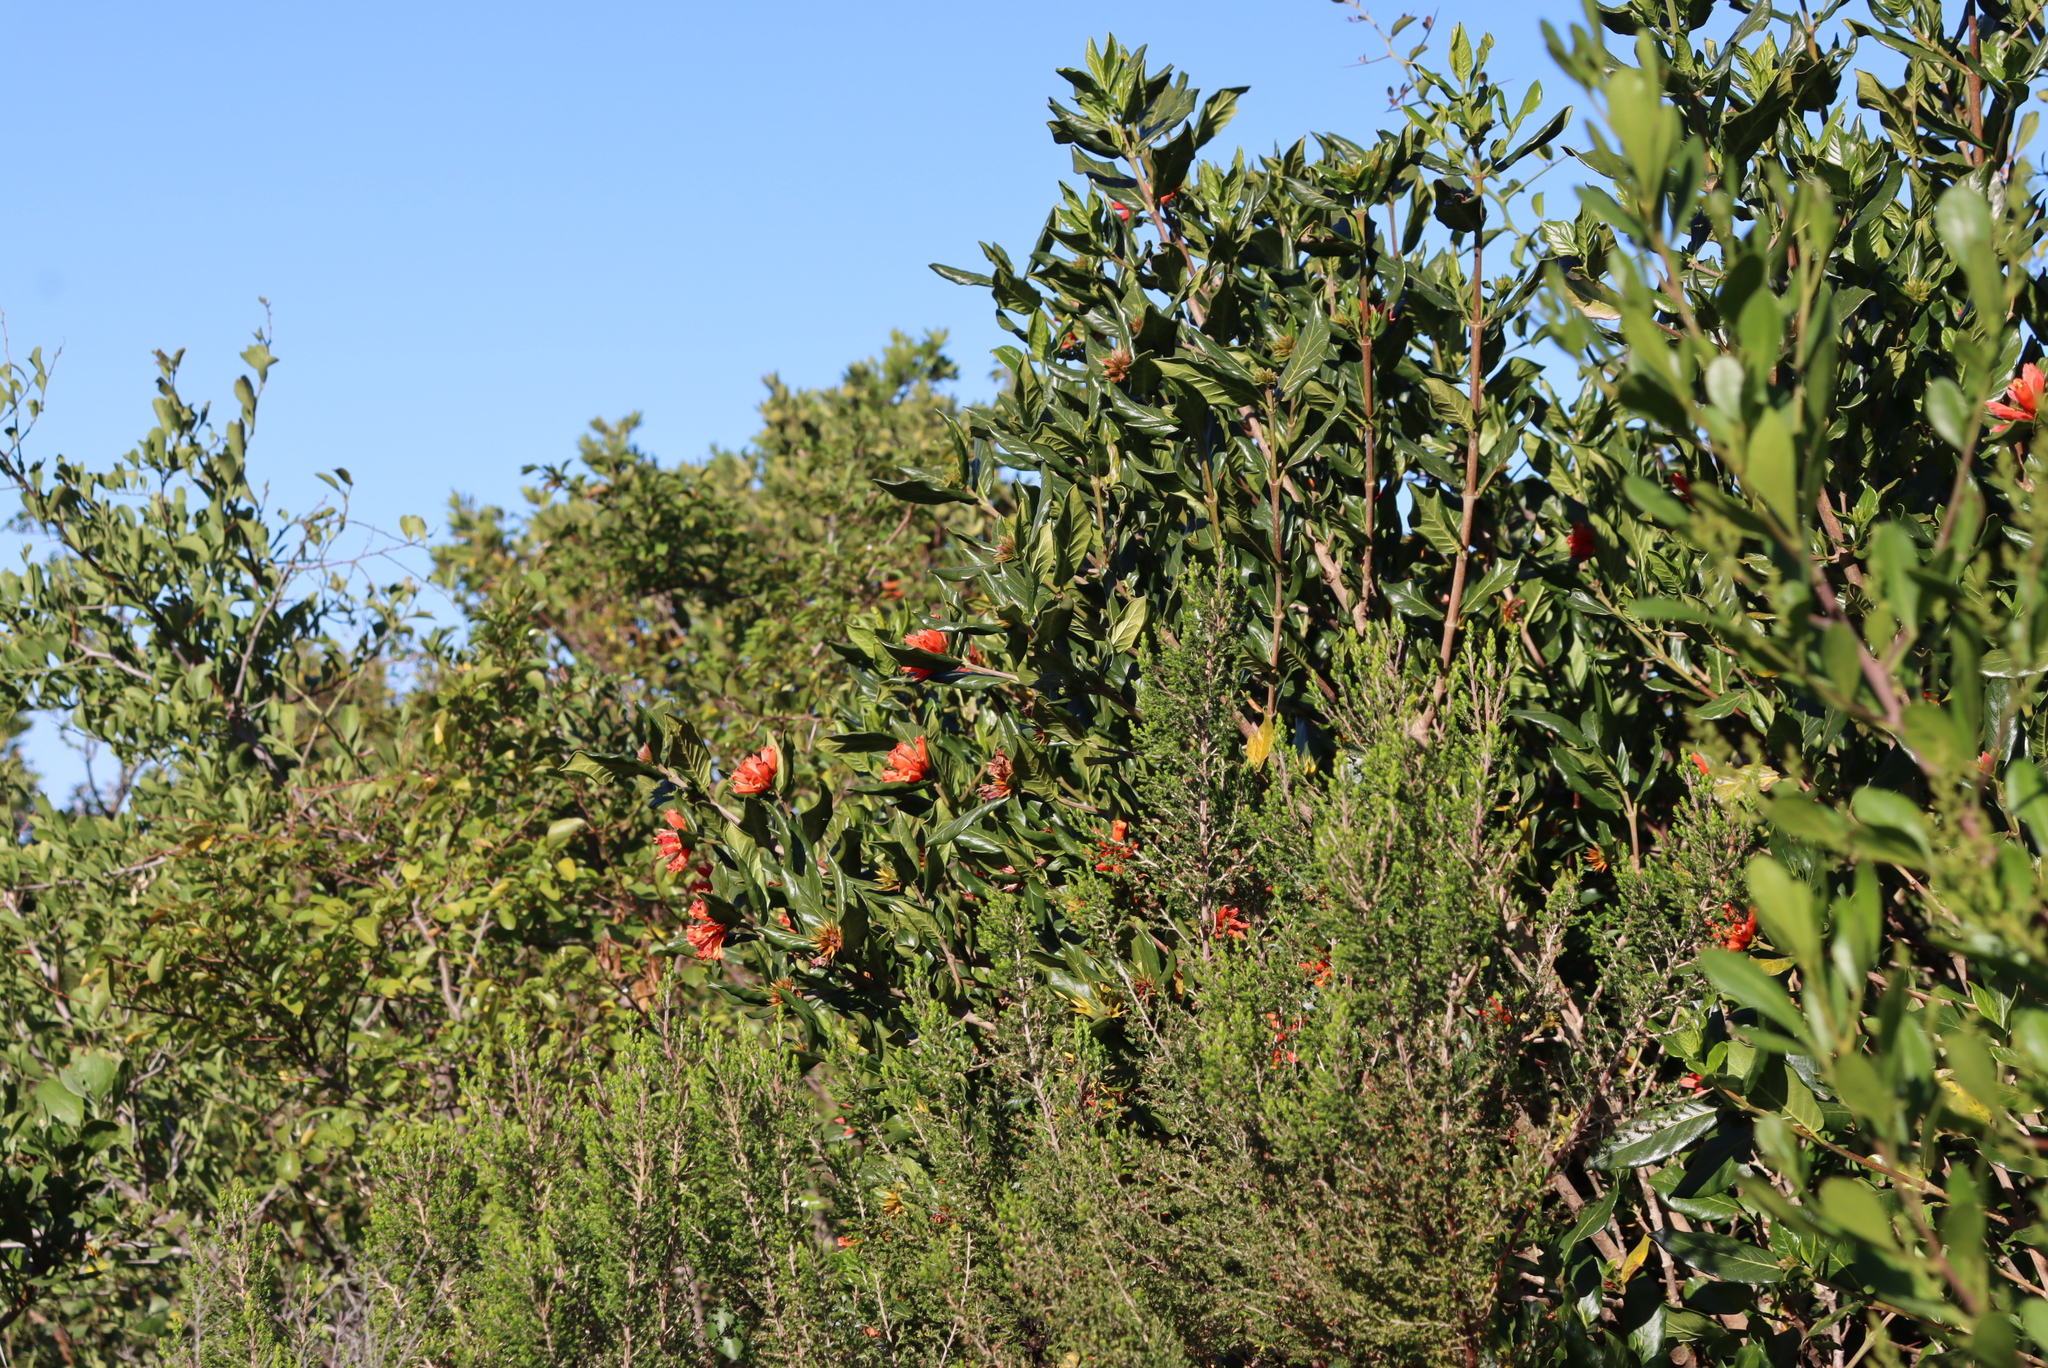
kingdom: Plantae
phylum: Tracheophyta
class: Magnoliopsida
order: Gentianales
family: Rubiaceae
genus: Burchellia
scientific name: Burchellia bubalina
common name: Wild pomegranate
